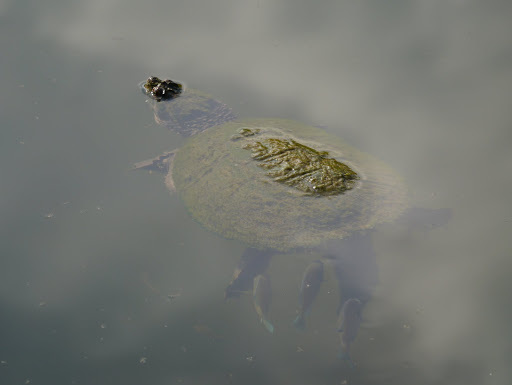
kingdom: Animalia
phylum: Chordata
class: Testudines
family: Chelydridae
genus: Chelydra
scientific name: Chelydra serpentina
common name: Common snapping turtle
